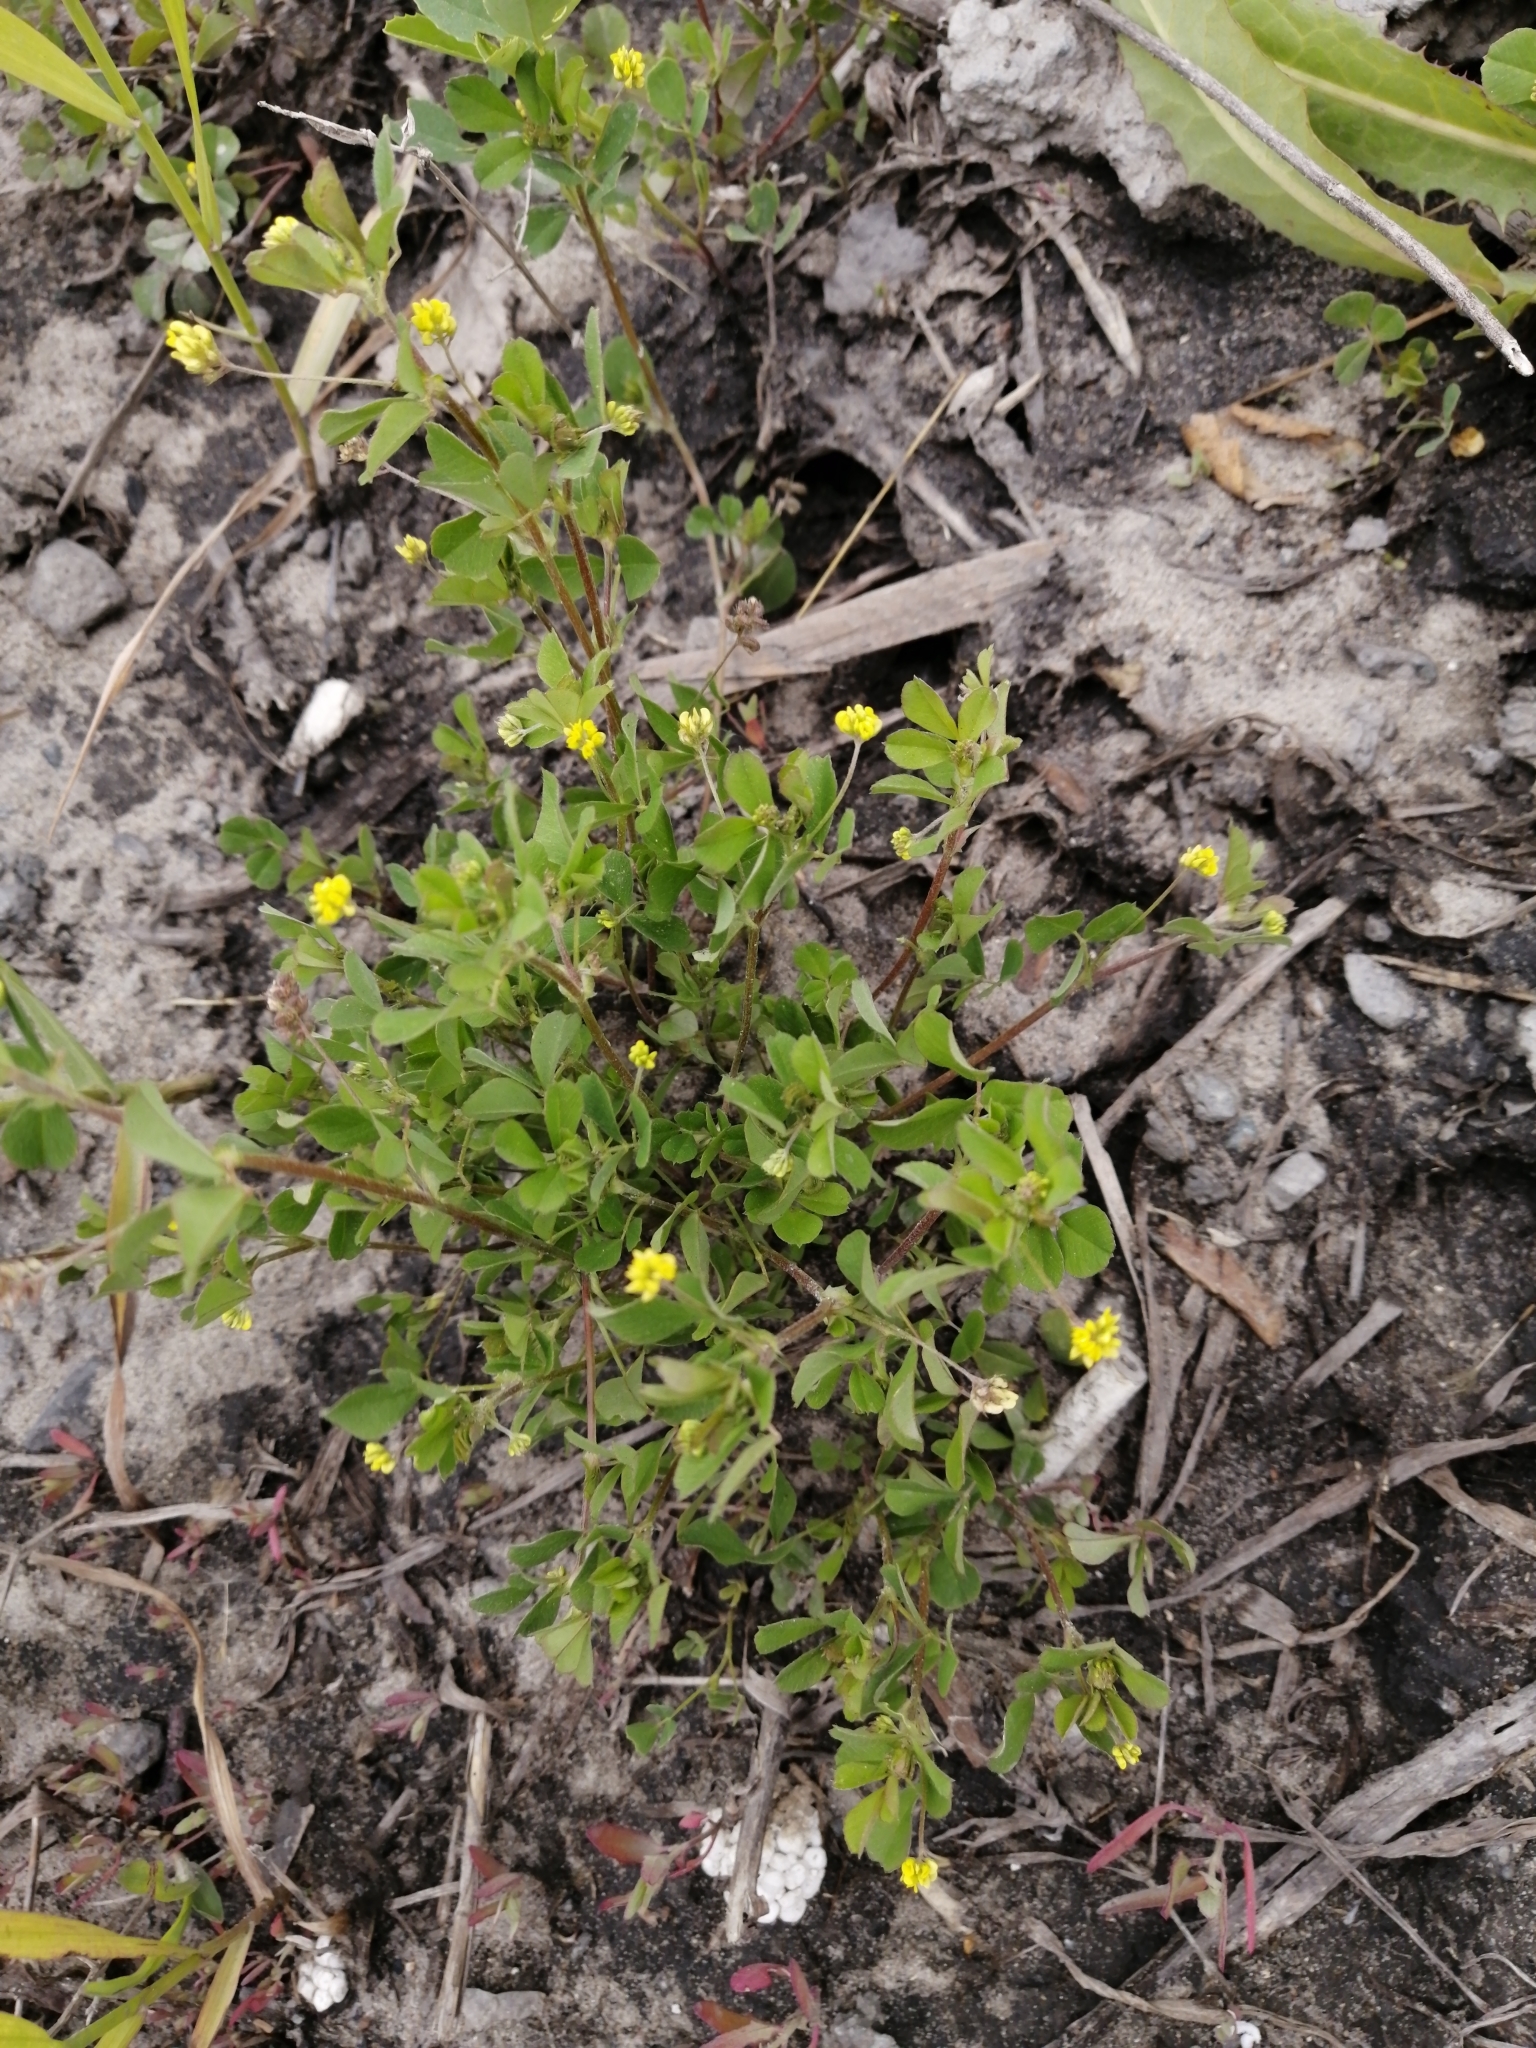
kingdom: Plantae
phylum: Tracheophyta
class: Magnoliopsida
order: Fabales
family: Fabaceae
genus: Medicago
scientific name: Medicago lupulina
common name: Black medick
